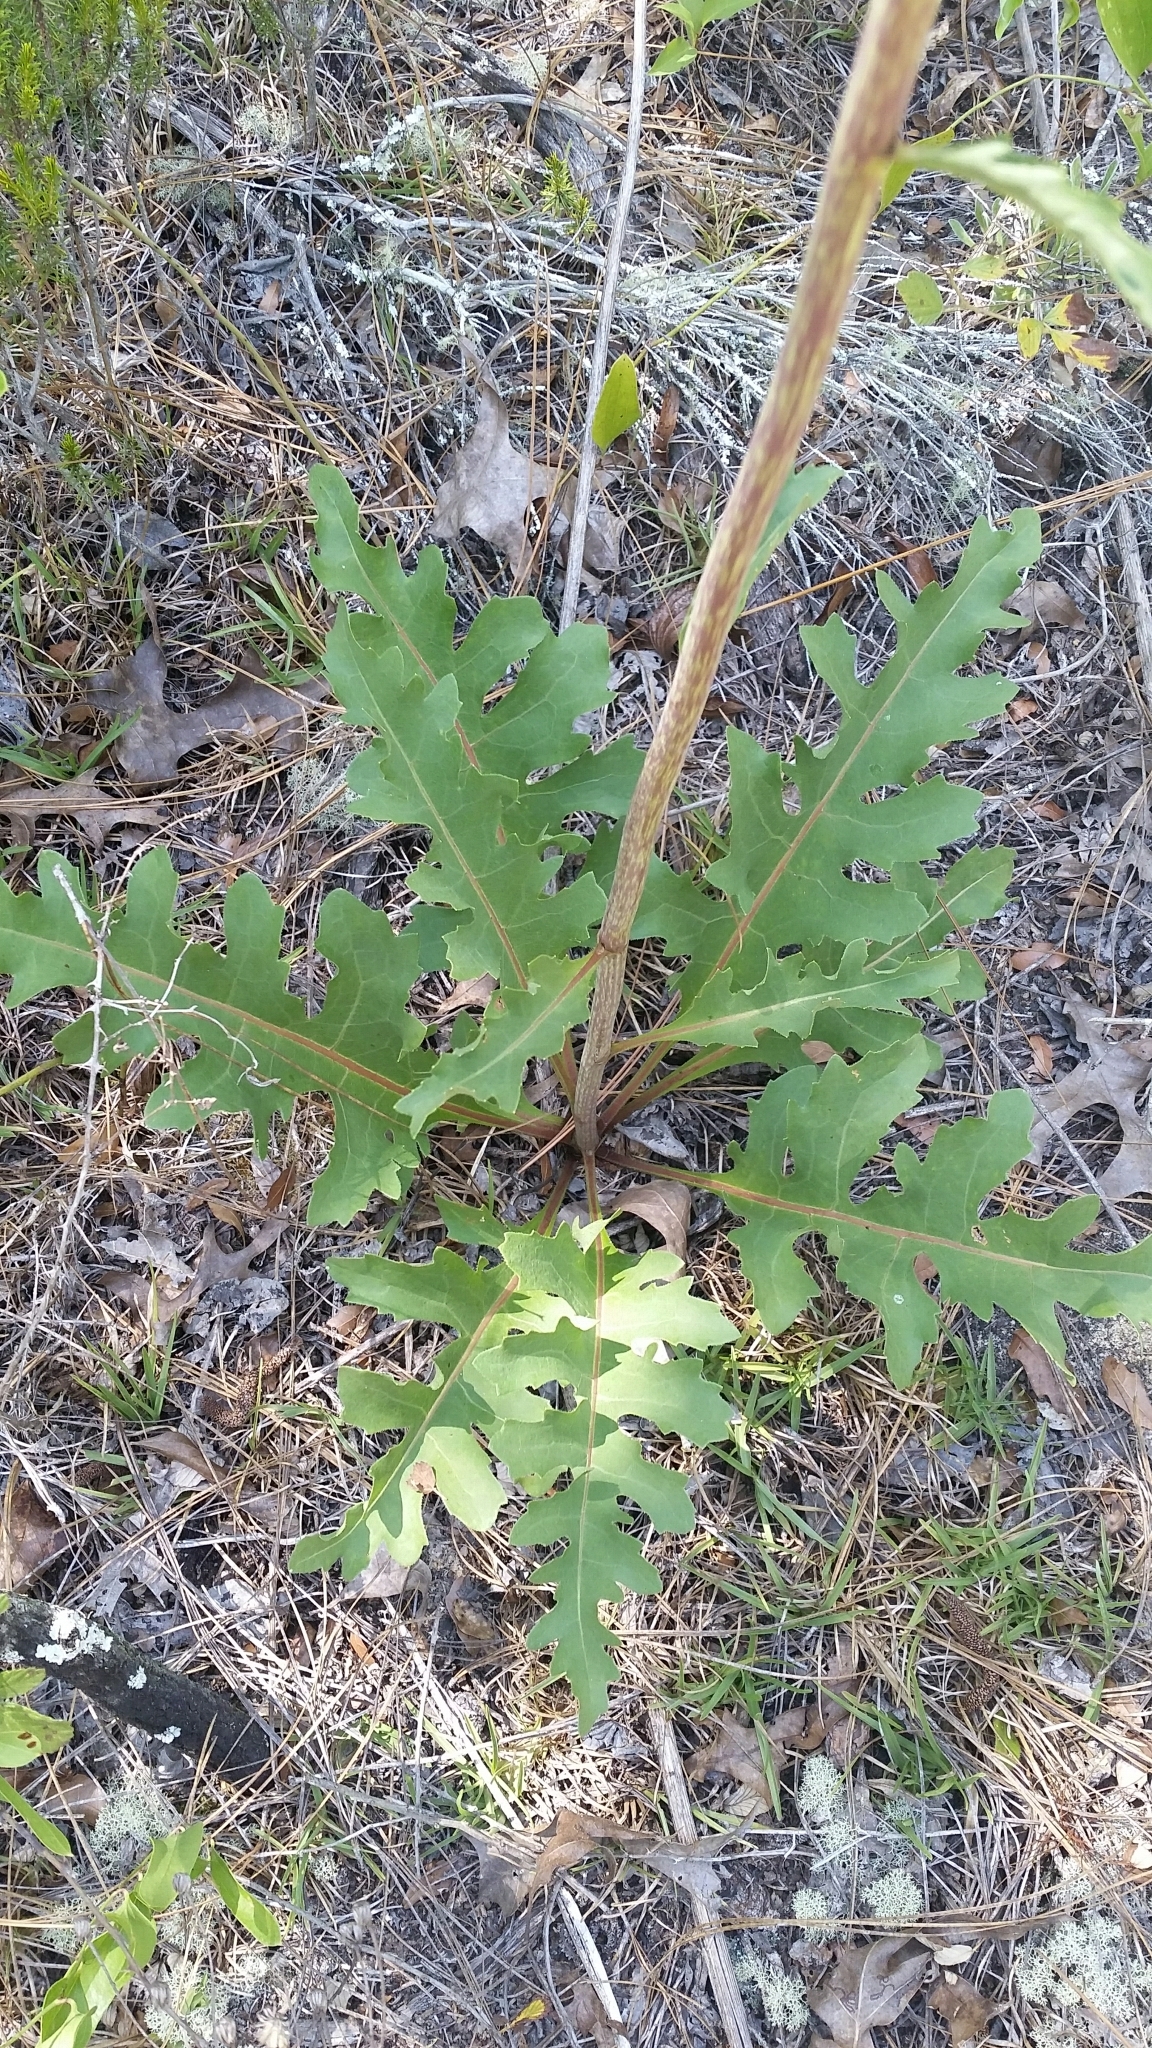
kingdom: Plantae
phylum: Tracheophyta
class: Magnoliopsida
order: Asterales
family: Asteraceae
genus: Silphium
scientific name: Silphium compositum
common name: Lesser basal-leaf rosinweed
